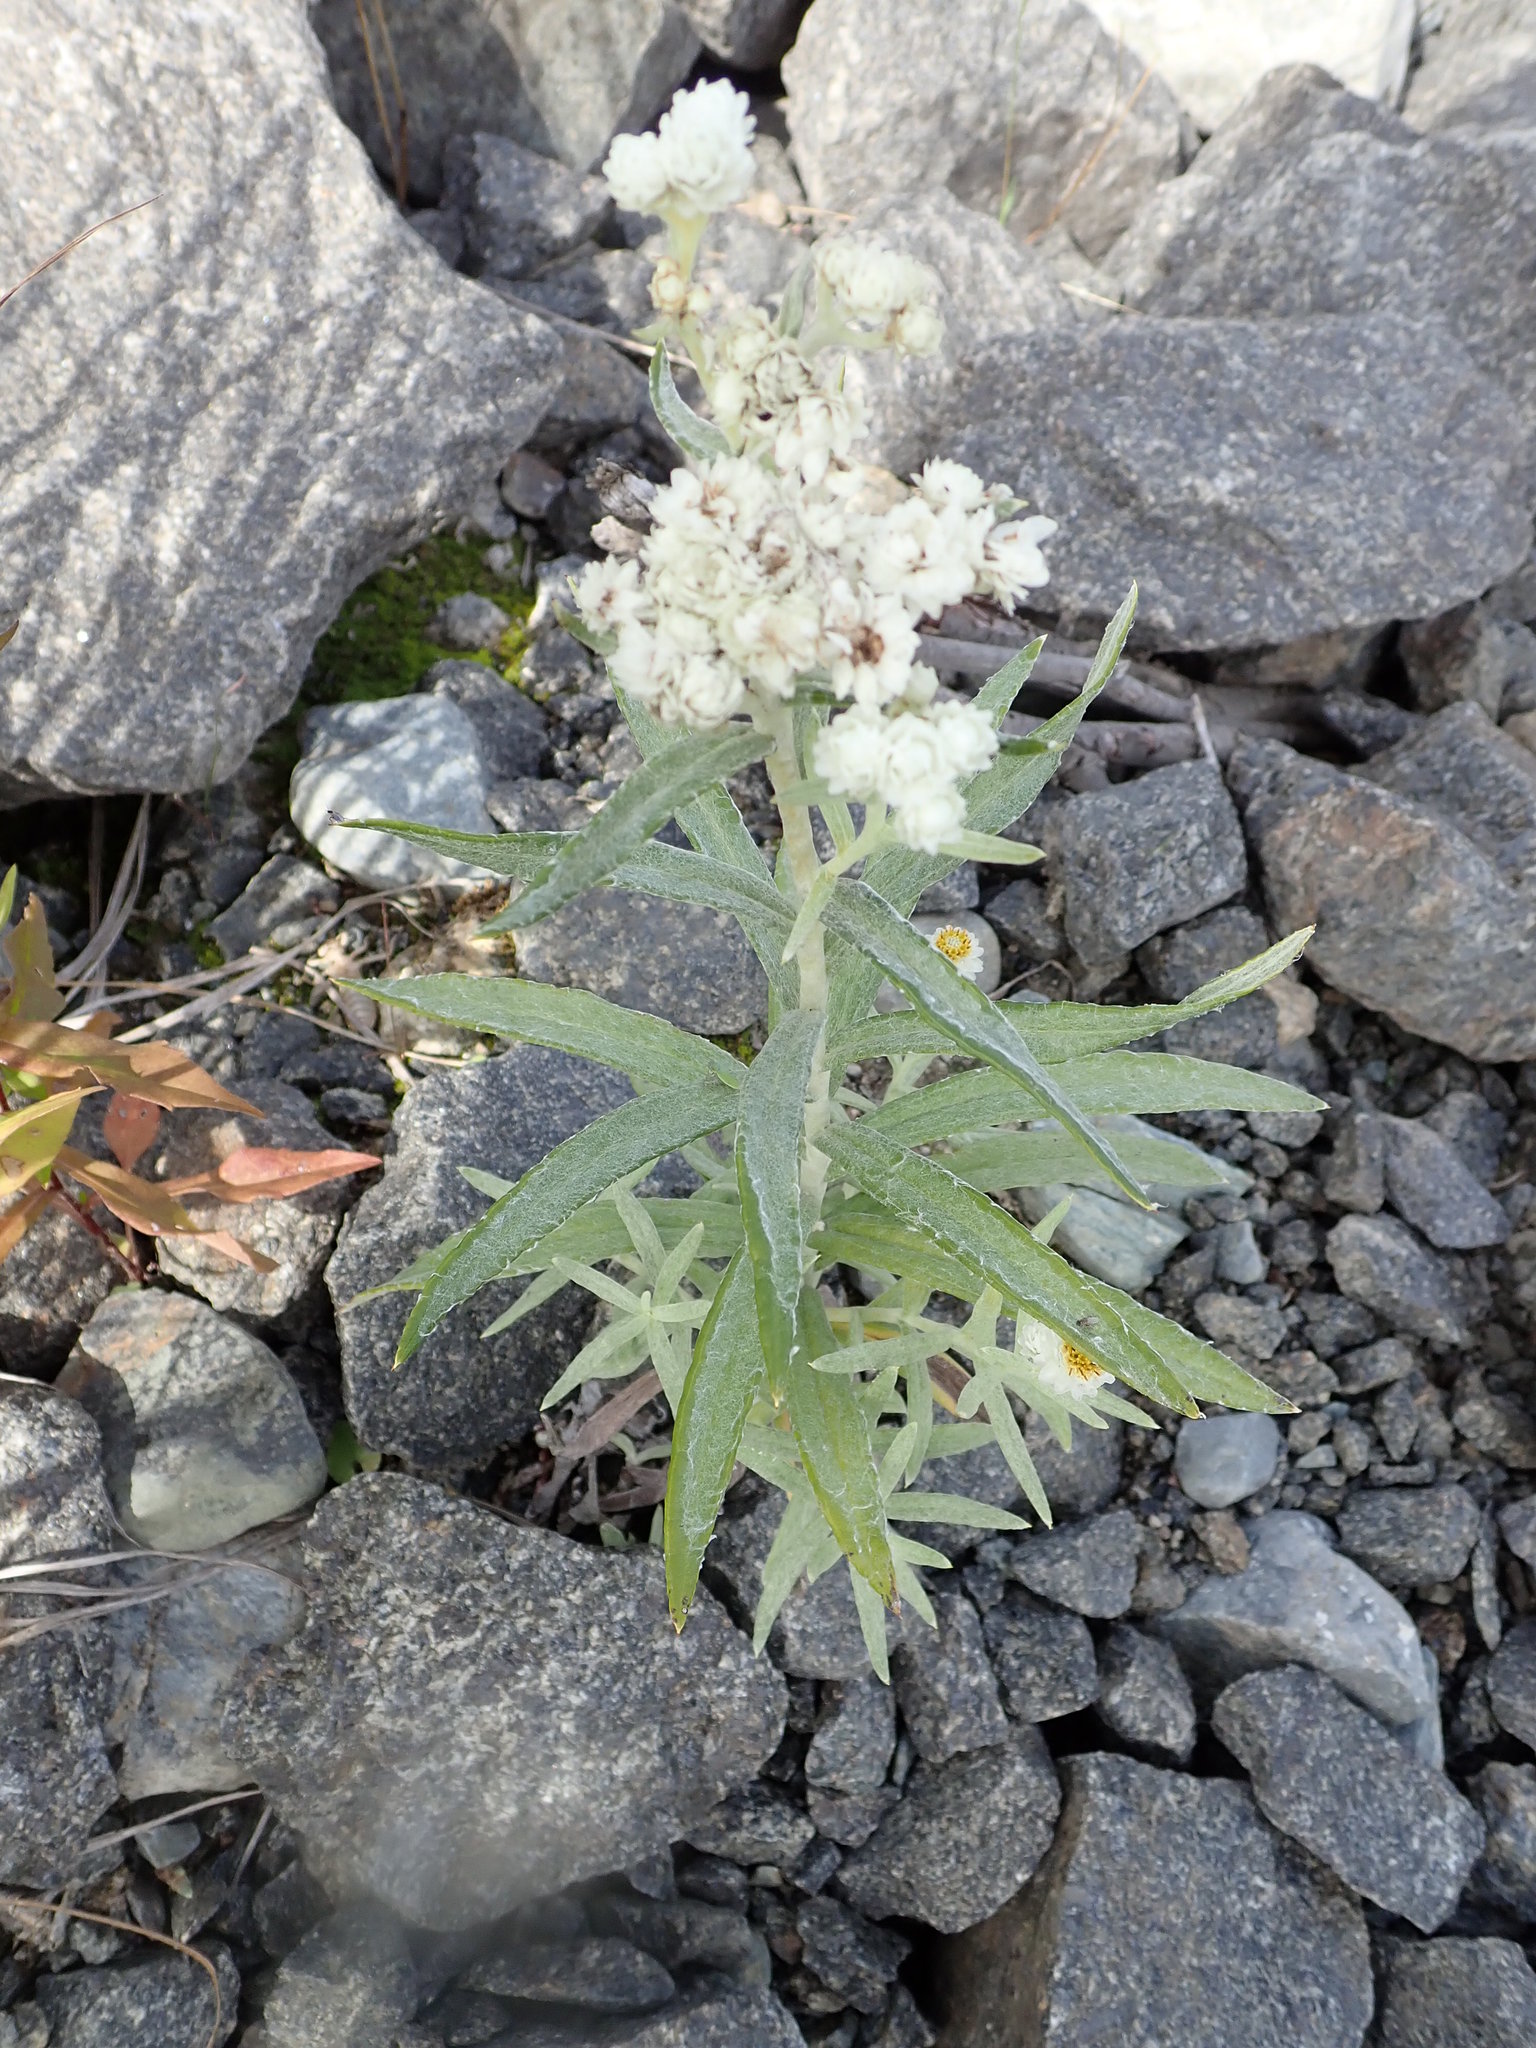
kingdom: Plantae
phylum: Tracheophyta
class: Magnoliopsida
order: Asterales
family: Asteraceae
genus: Anaphalis
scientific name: Anaphalis margaritacea
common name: Pearly everlasting
